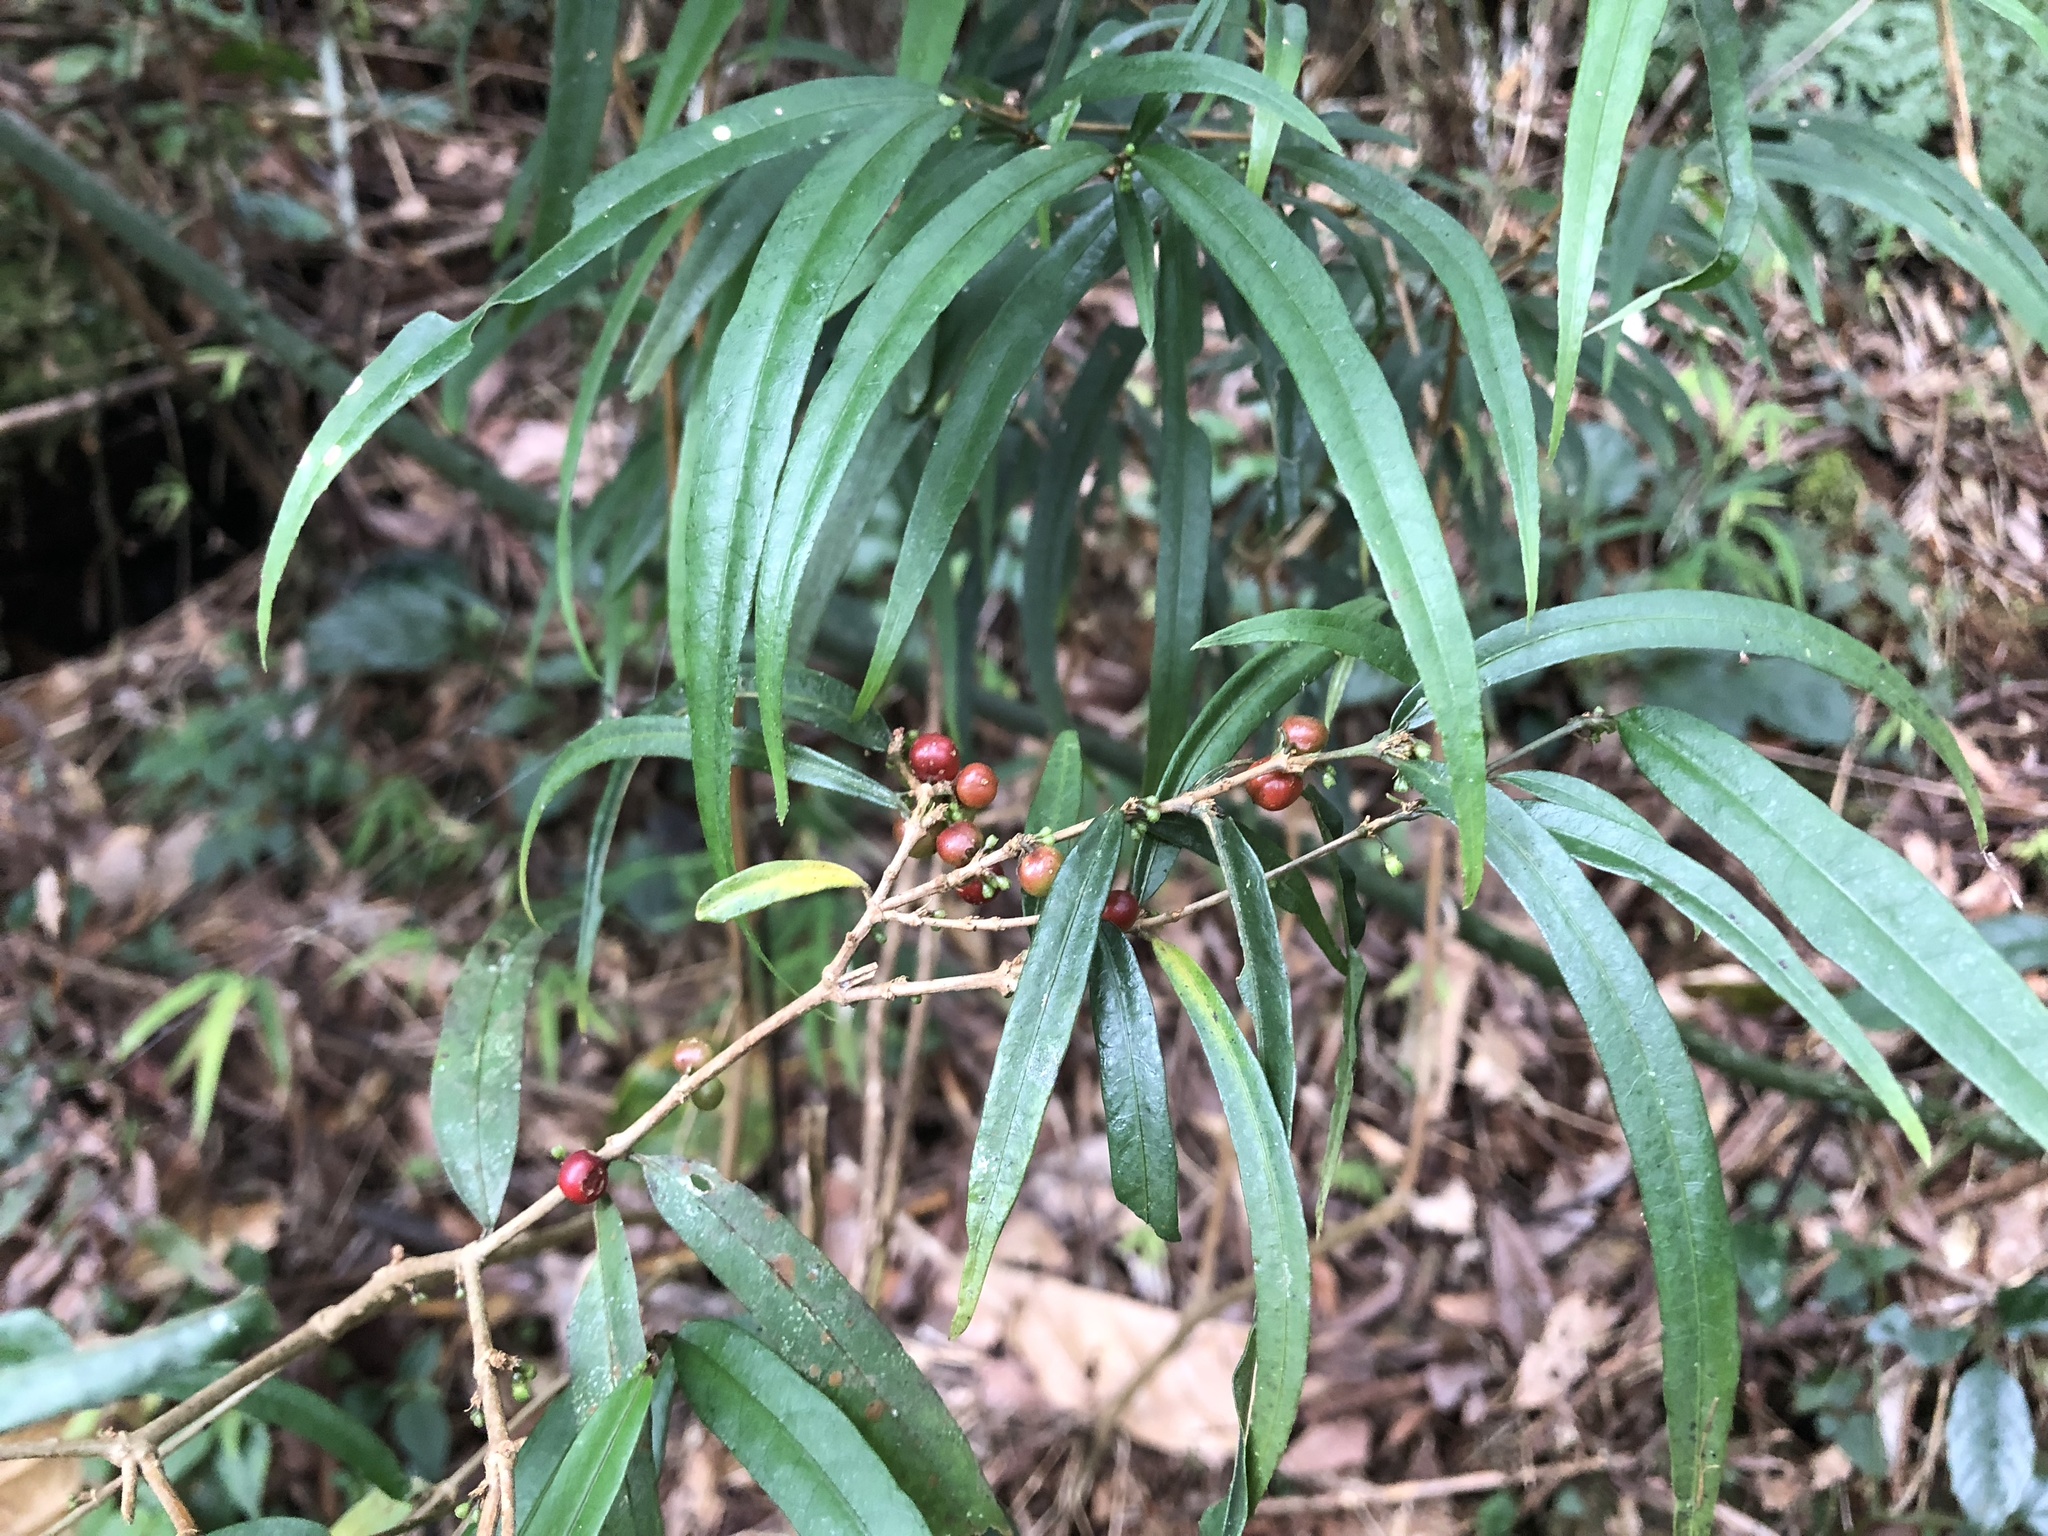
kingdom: Plantae
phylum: Tracheophyta
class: Magnoliopsida
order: Gentianales
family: Rubiaceae
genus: Damnacanthus
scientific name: Damnacanthus angustifolius
